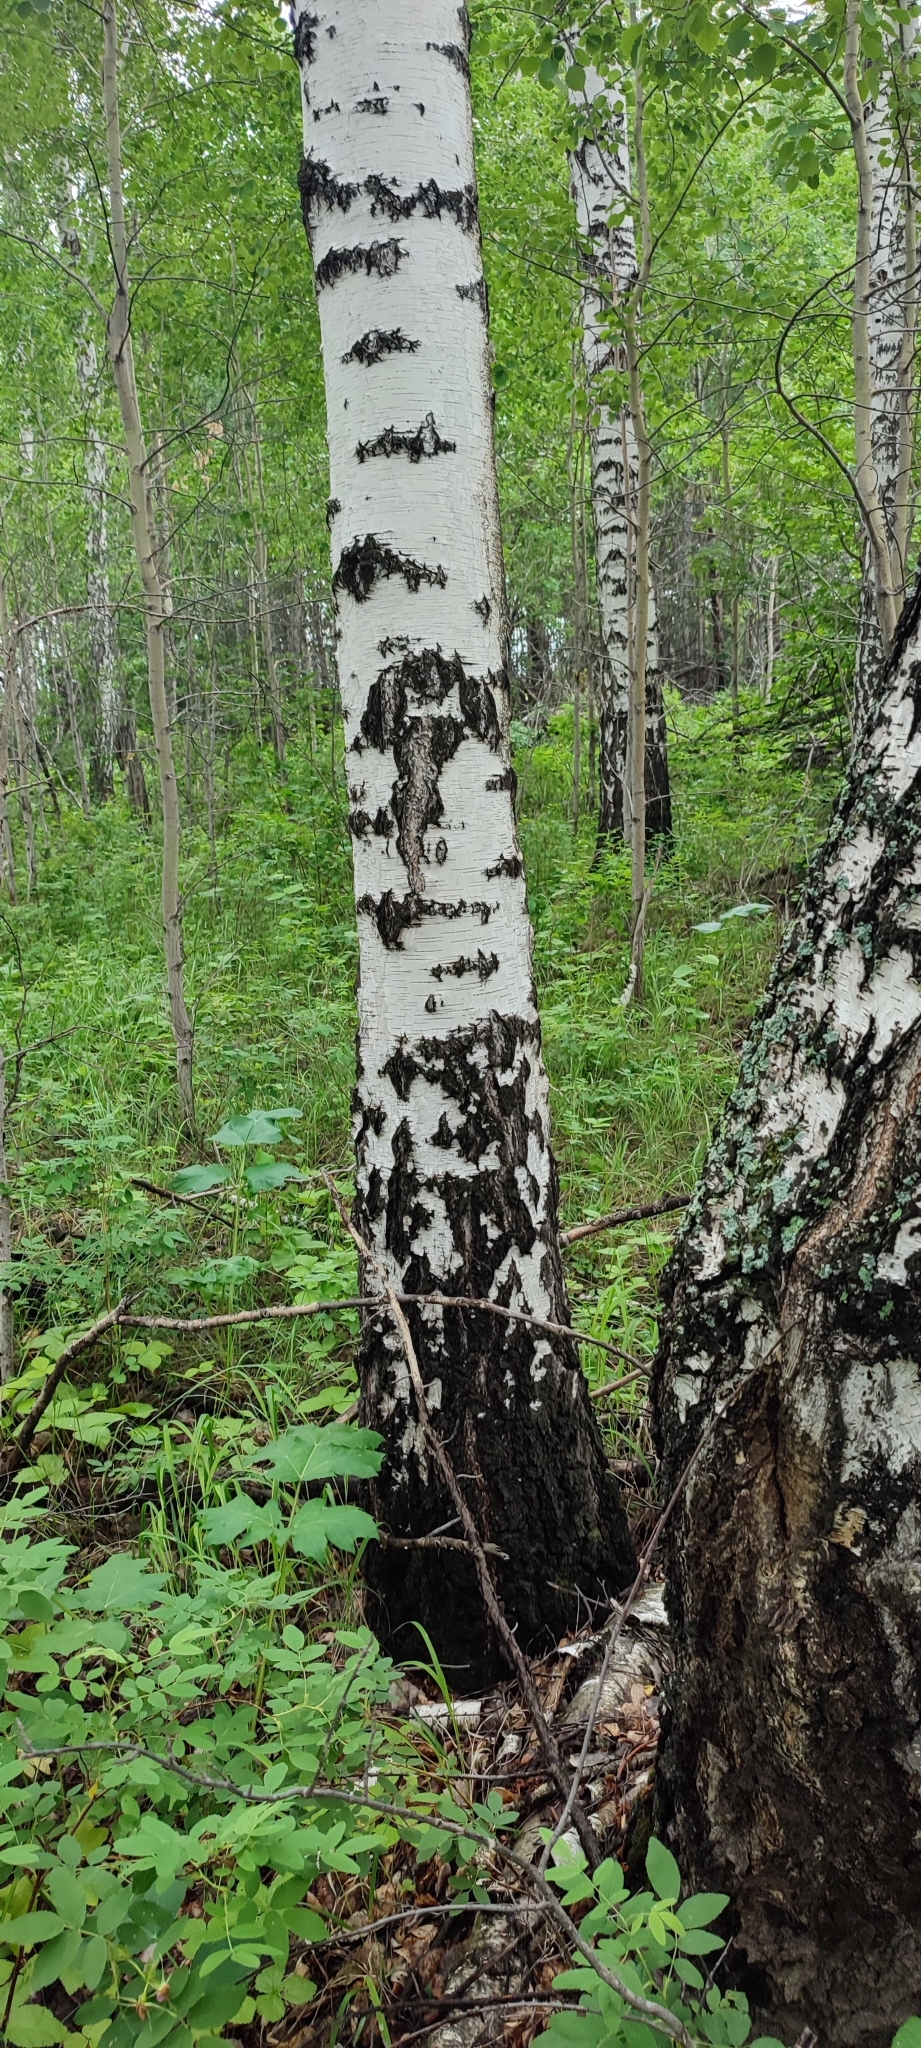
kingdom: Plantae
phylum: Tracheophyta
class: Magnoliopsida
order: Fagales
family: Betulaceae
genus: Betula
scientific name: Betula pendula
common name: Silver birch
